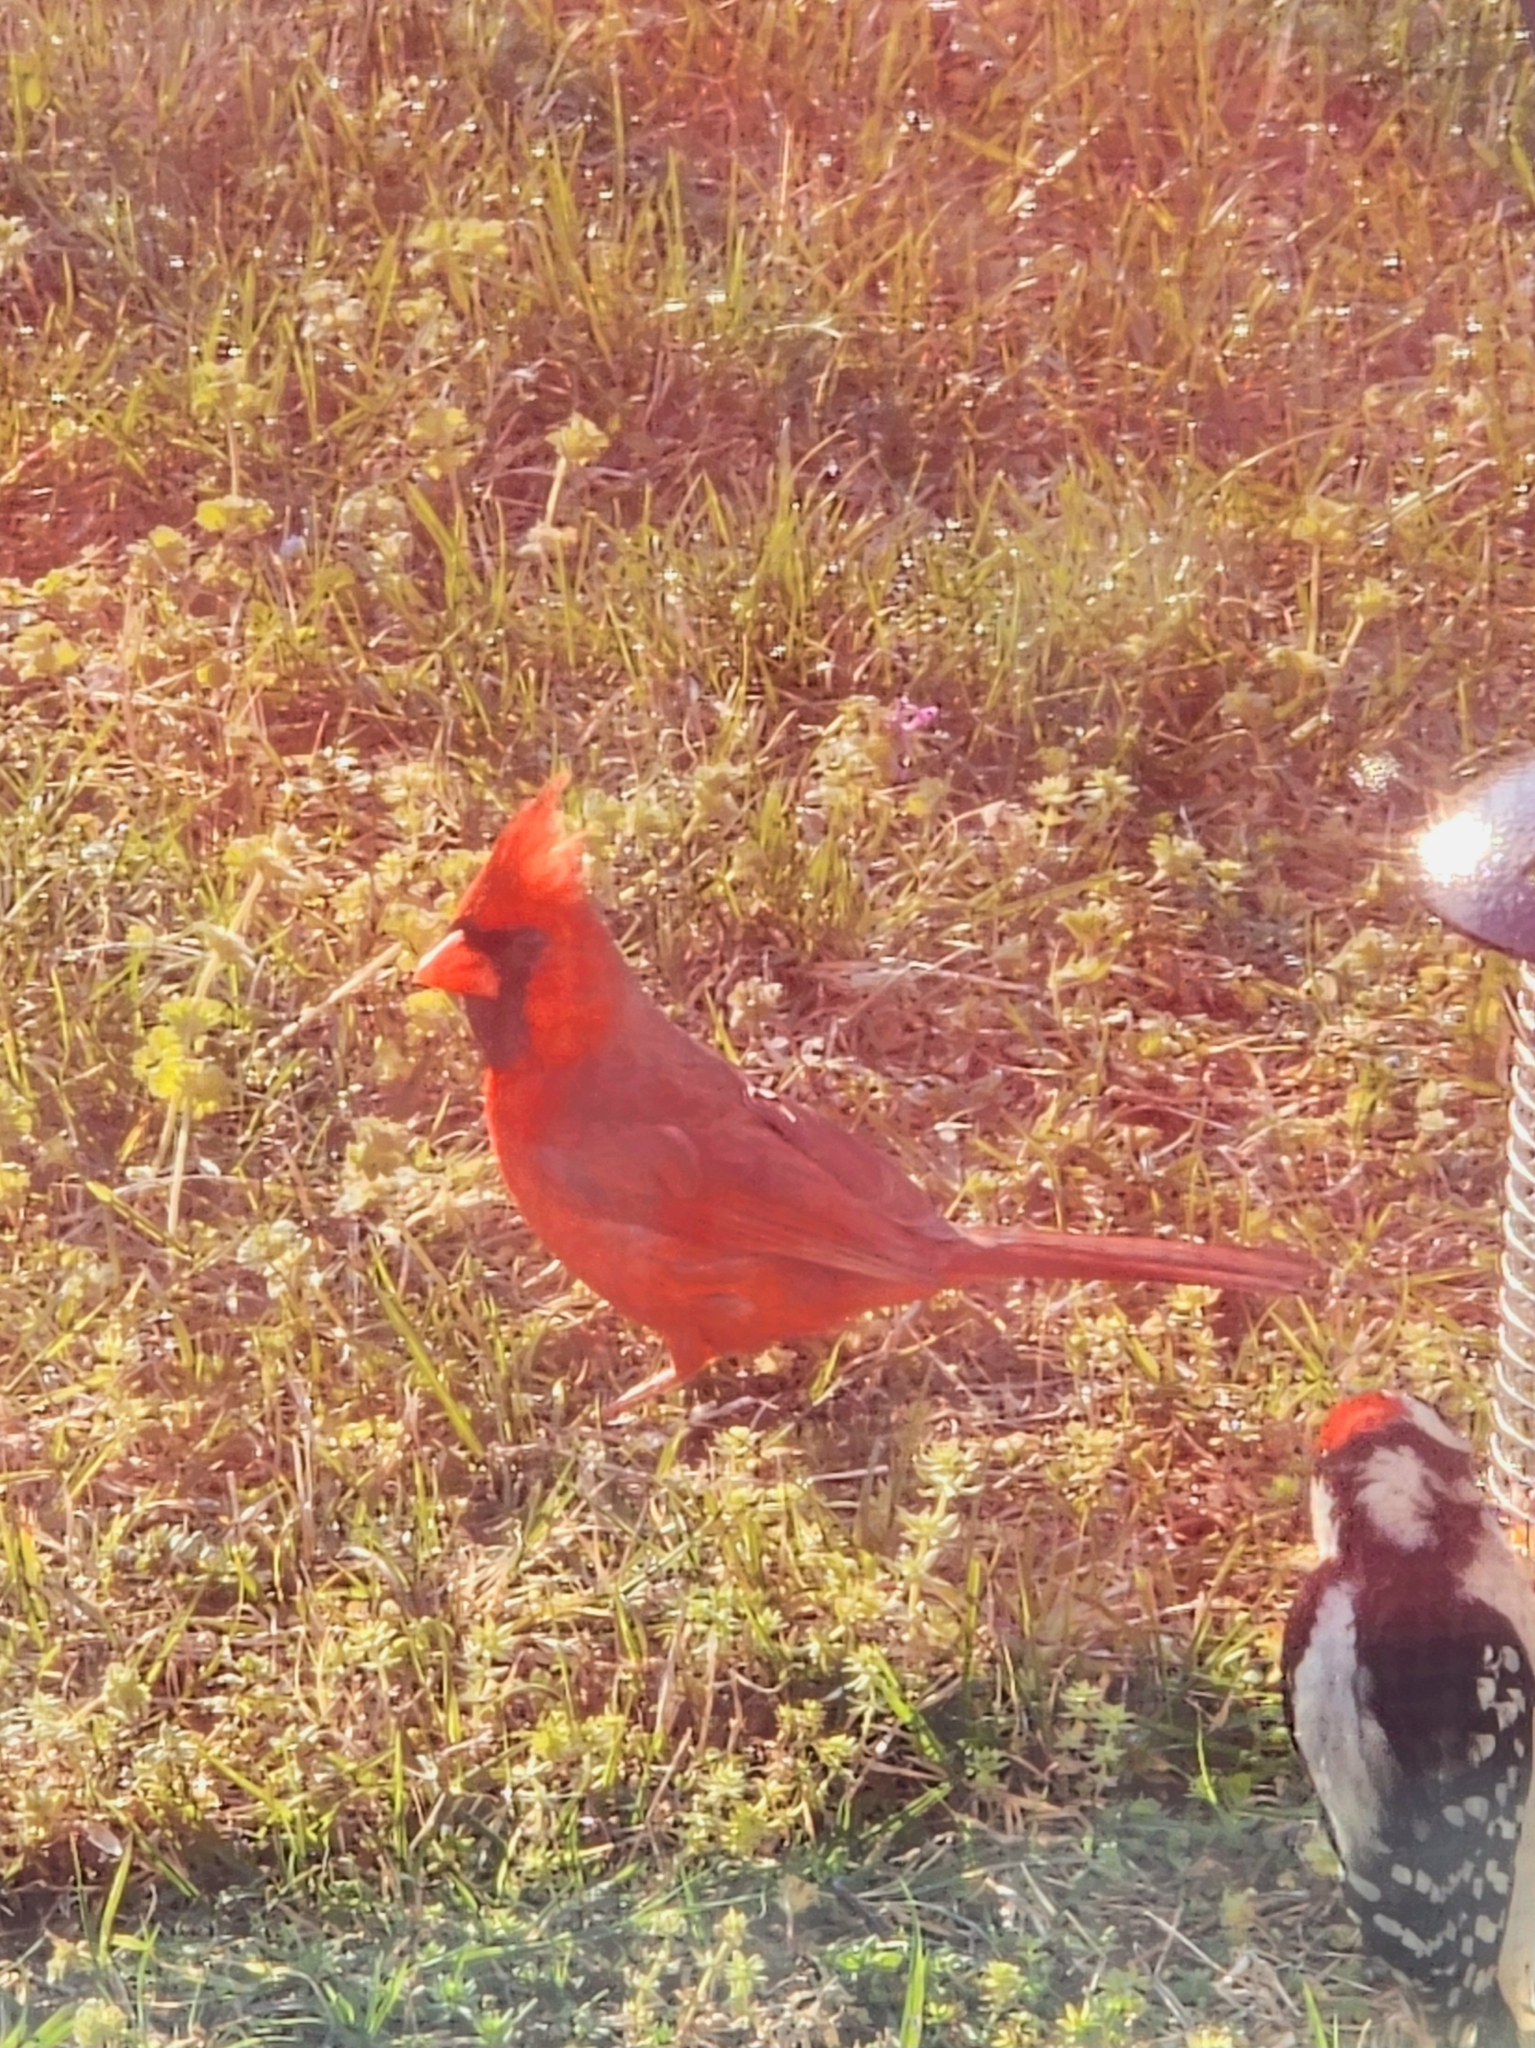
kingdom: Animalia
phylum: Chordata
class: Aves
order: Passeriformes
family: Cardinalidae
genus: Cardinalis
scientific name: Cardinalis cardinalis
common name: Northern cardinal
